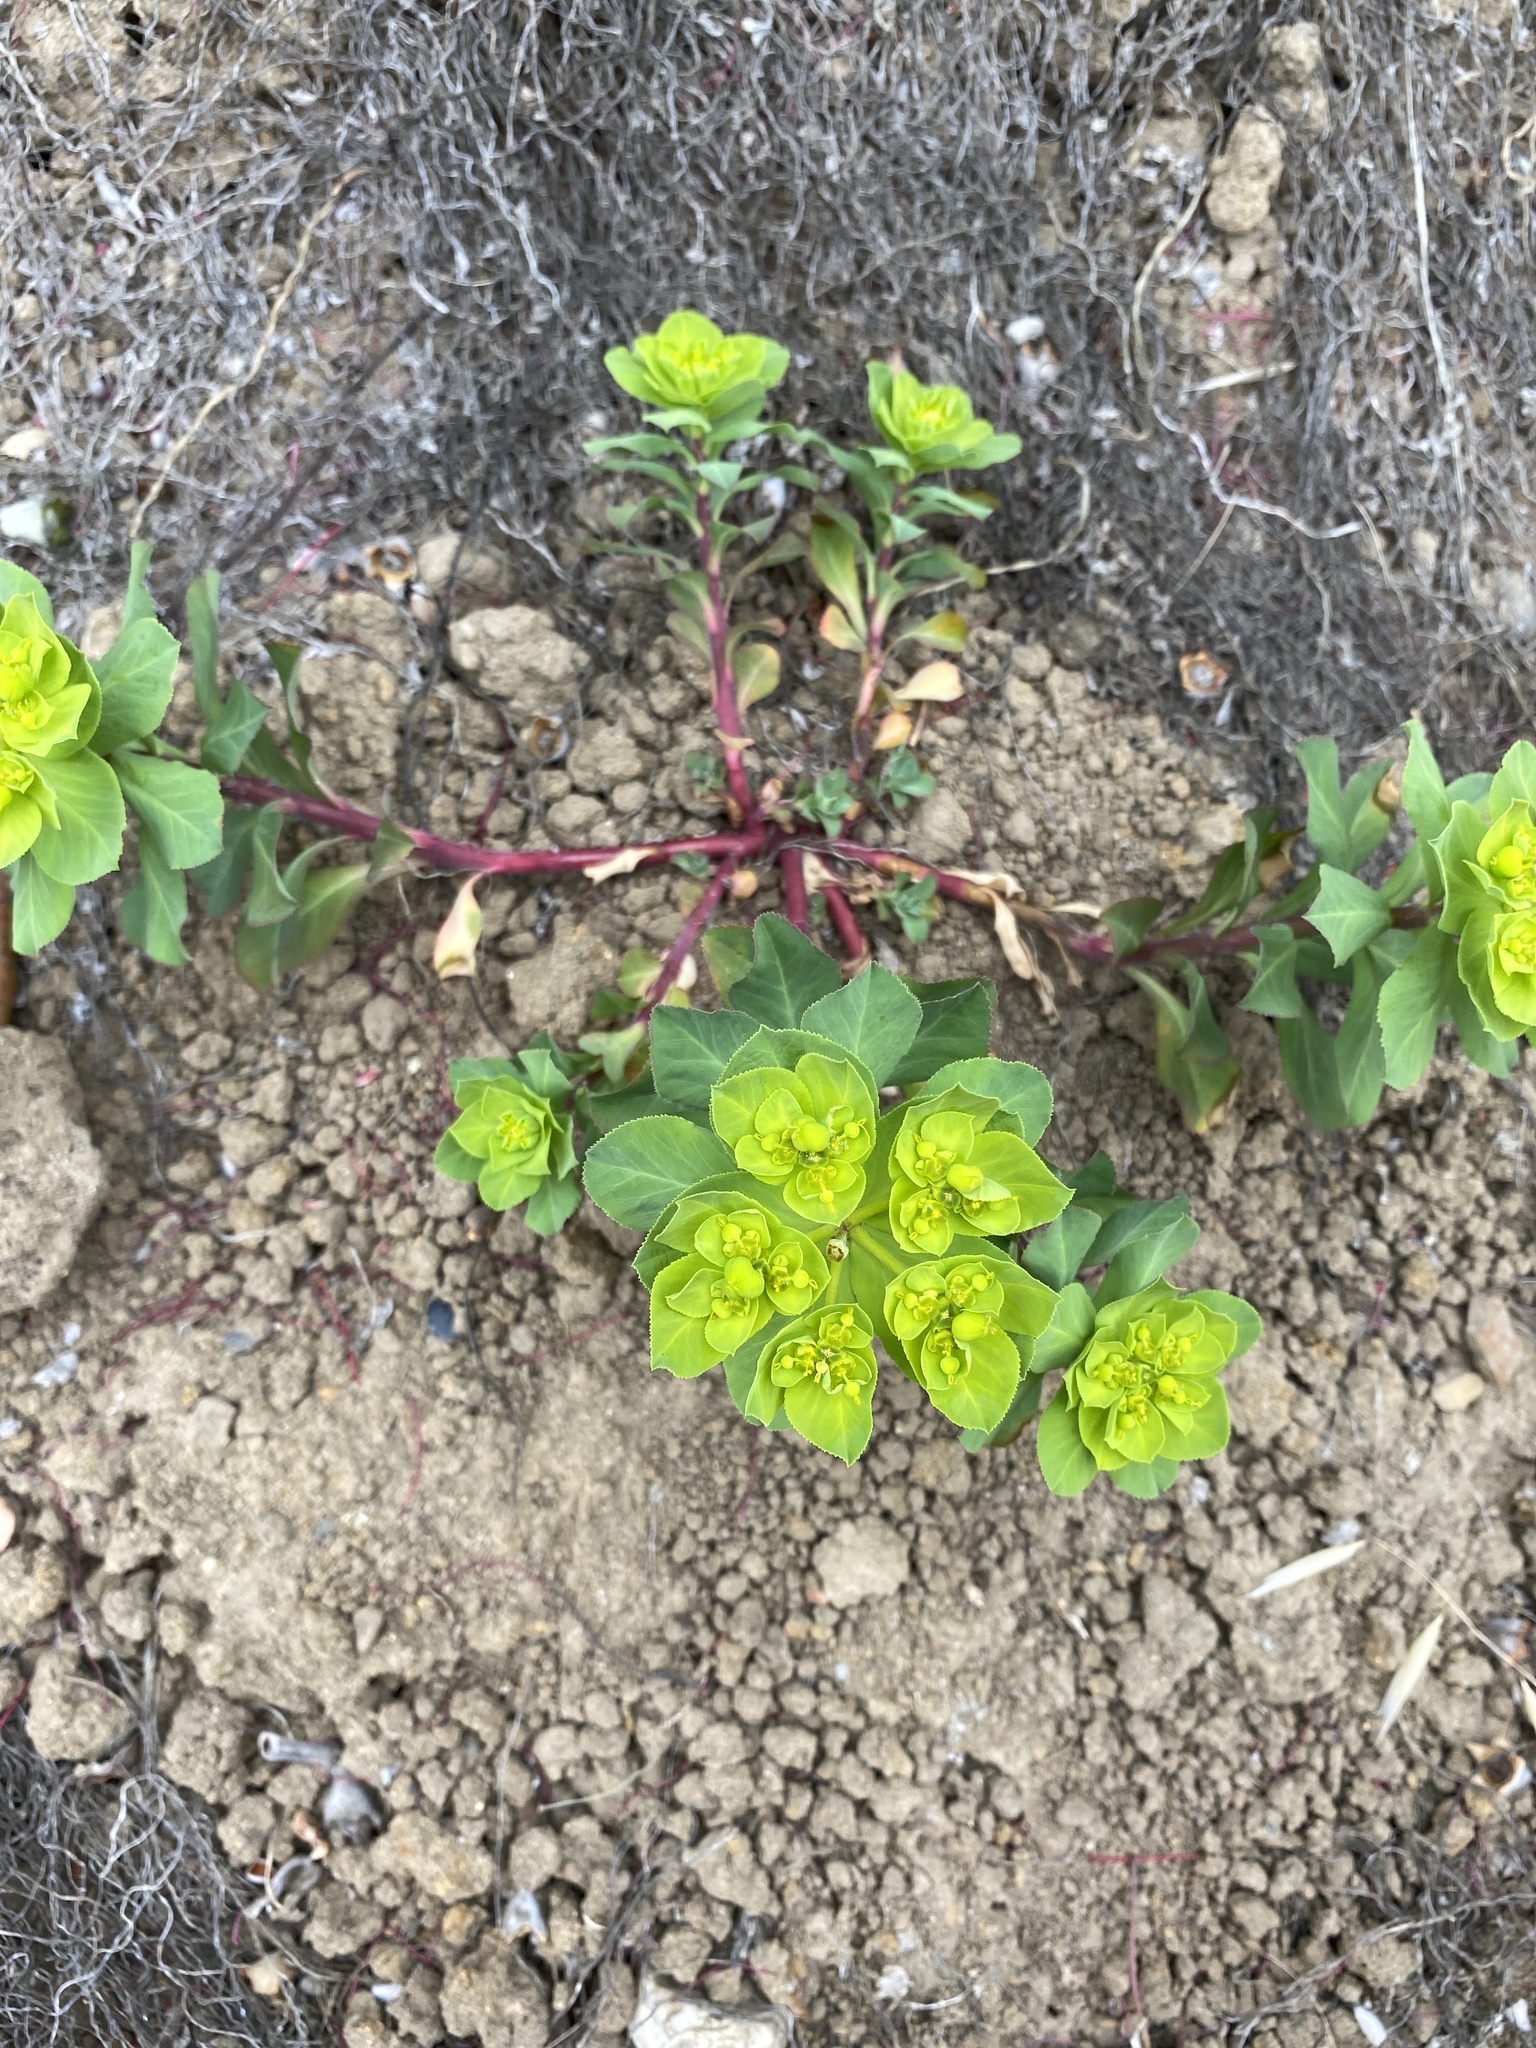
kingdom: Plantae
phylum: Tracheophyta
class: Magnoliopsida
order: Malpighiales
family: Euphorbiaceae
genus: Euphorbia
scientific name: Euphorbia helioscopia
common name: Sun spurge
